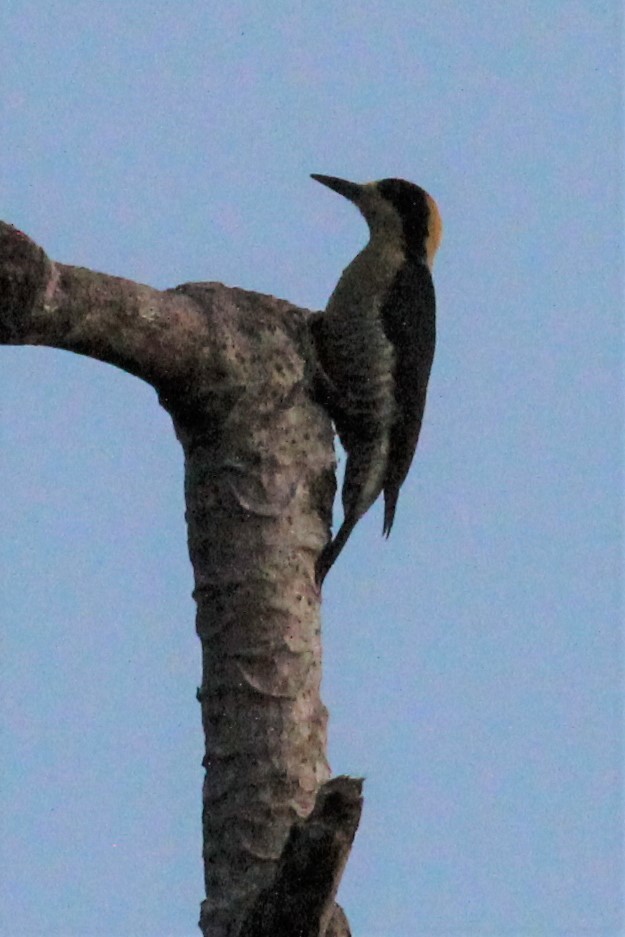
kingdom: Animalia
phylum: Chordata
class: Aves
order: Piciformes
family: Picidae
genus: Melanerpes
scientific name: Melanerpes chrysauchen
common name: Golden-naped woodpecker
